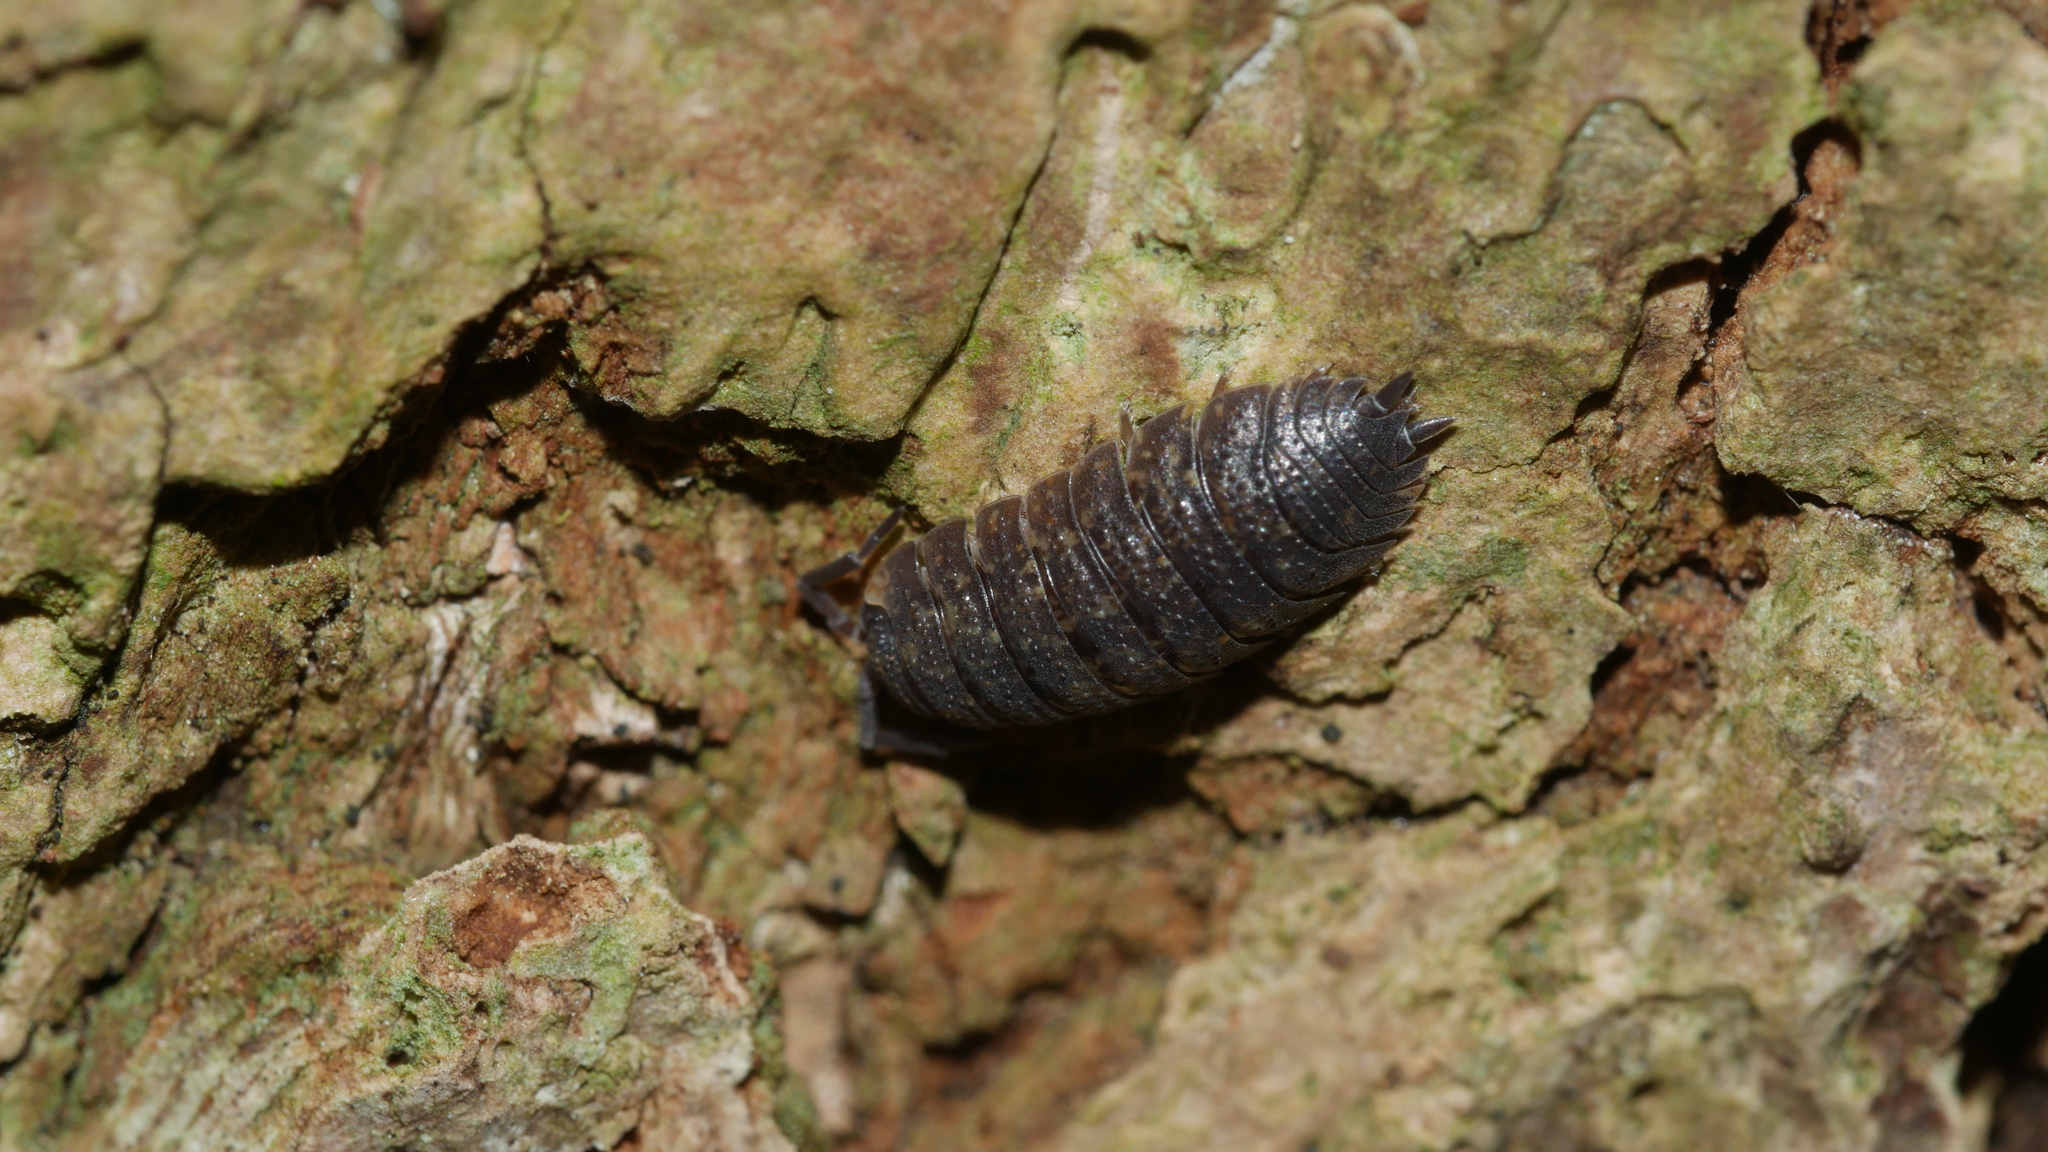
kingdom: Animalia
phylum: Arthropoda
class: Malacostraca
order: Isopoda
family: Porcellionidae
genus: Porcellio
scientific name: Porcellio scaber
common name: Common rough woodlouse
